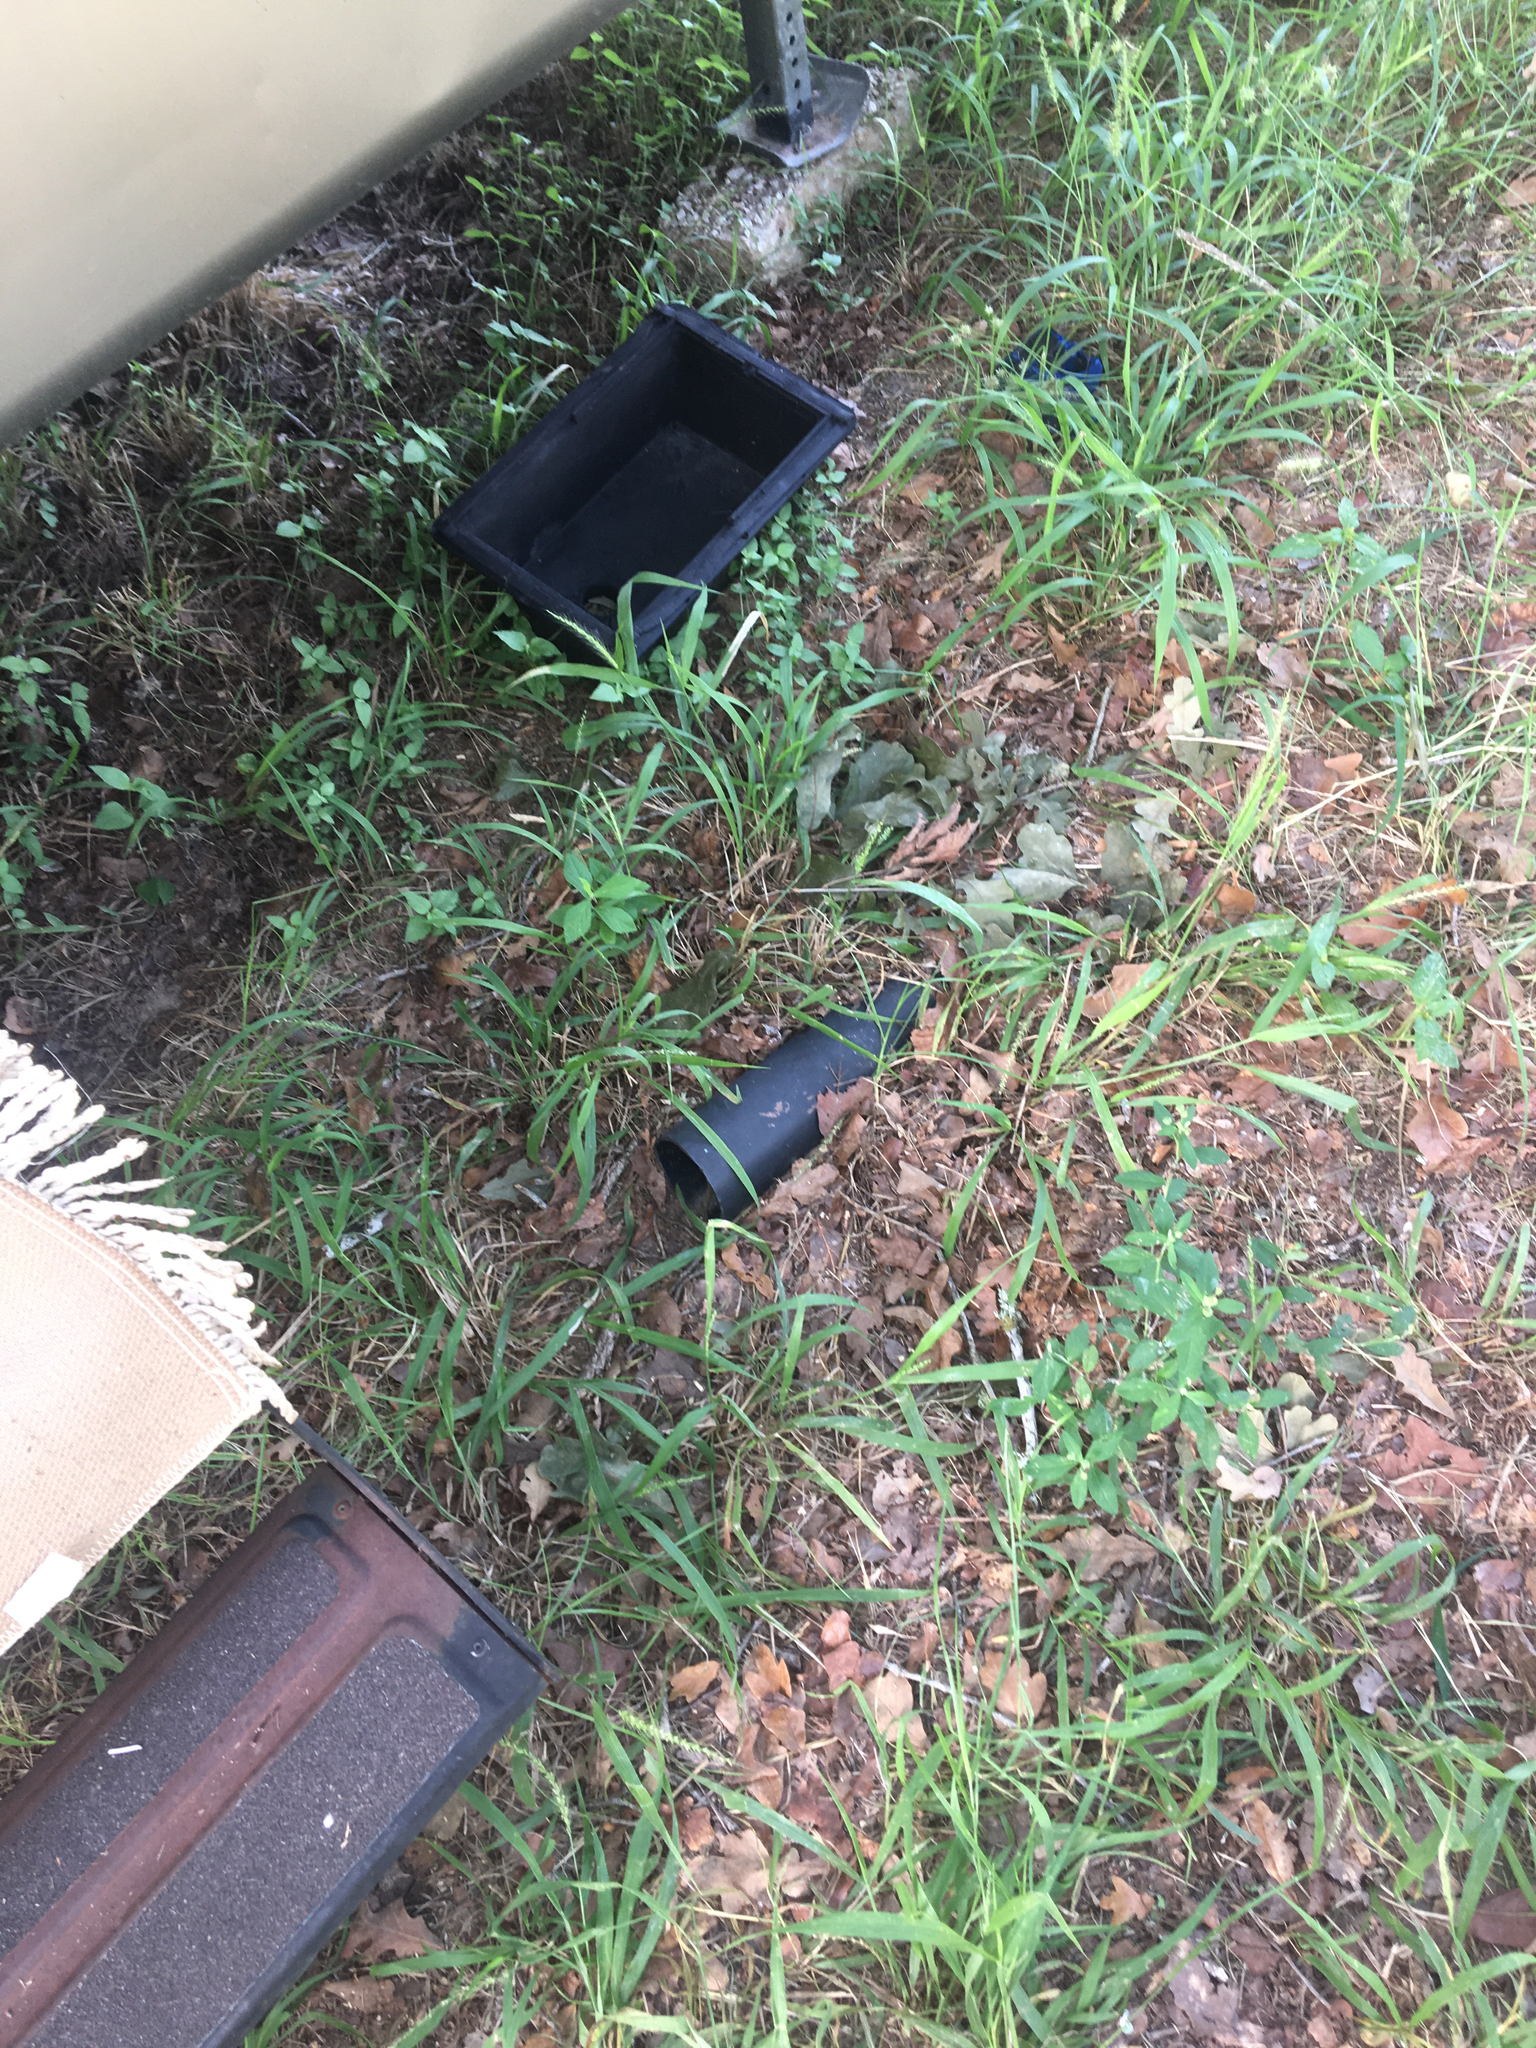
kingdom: Animalia
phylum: Chordata
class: Amphibia
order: Anura
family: Bufonidae
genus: Incilius
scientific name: Incilius nebulifer
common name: Gulf coast toad
